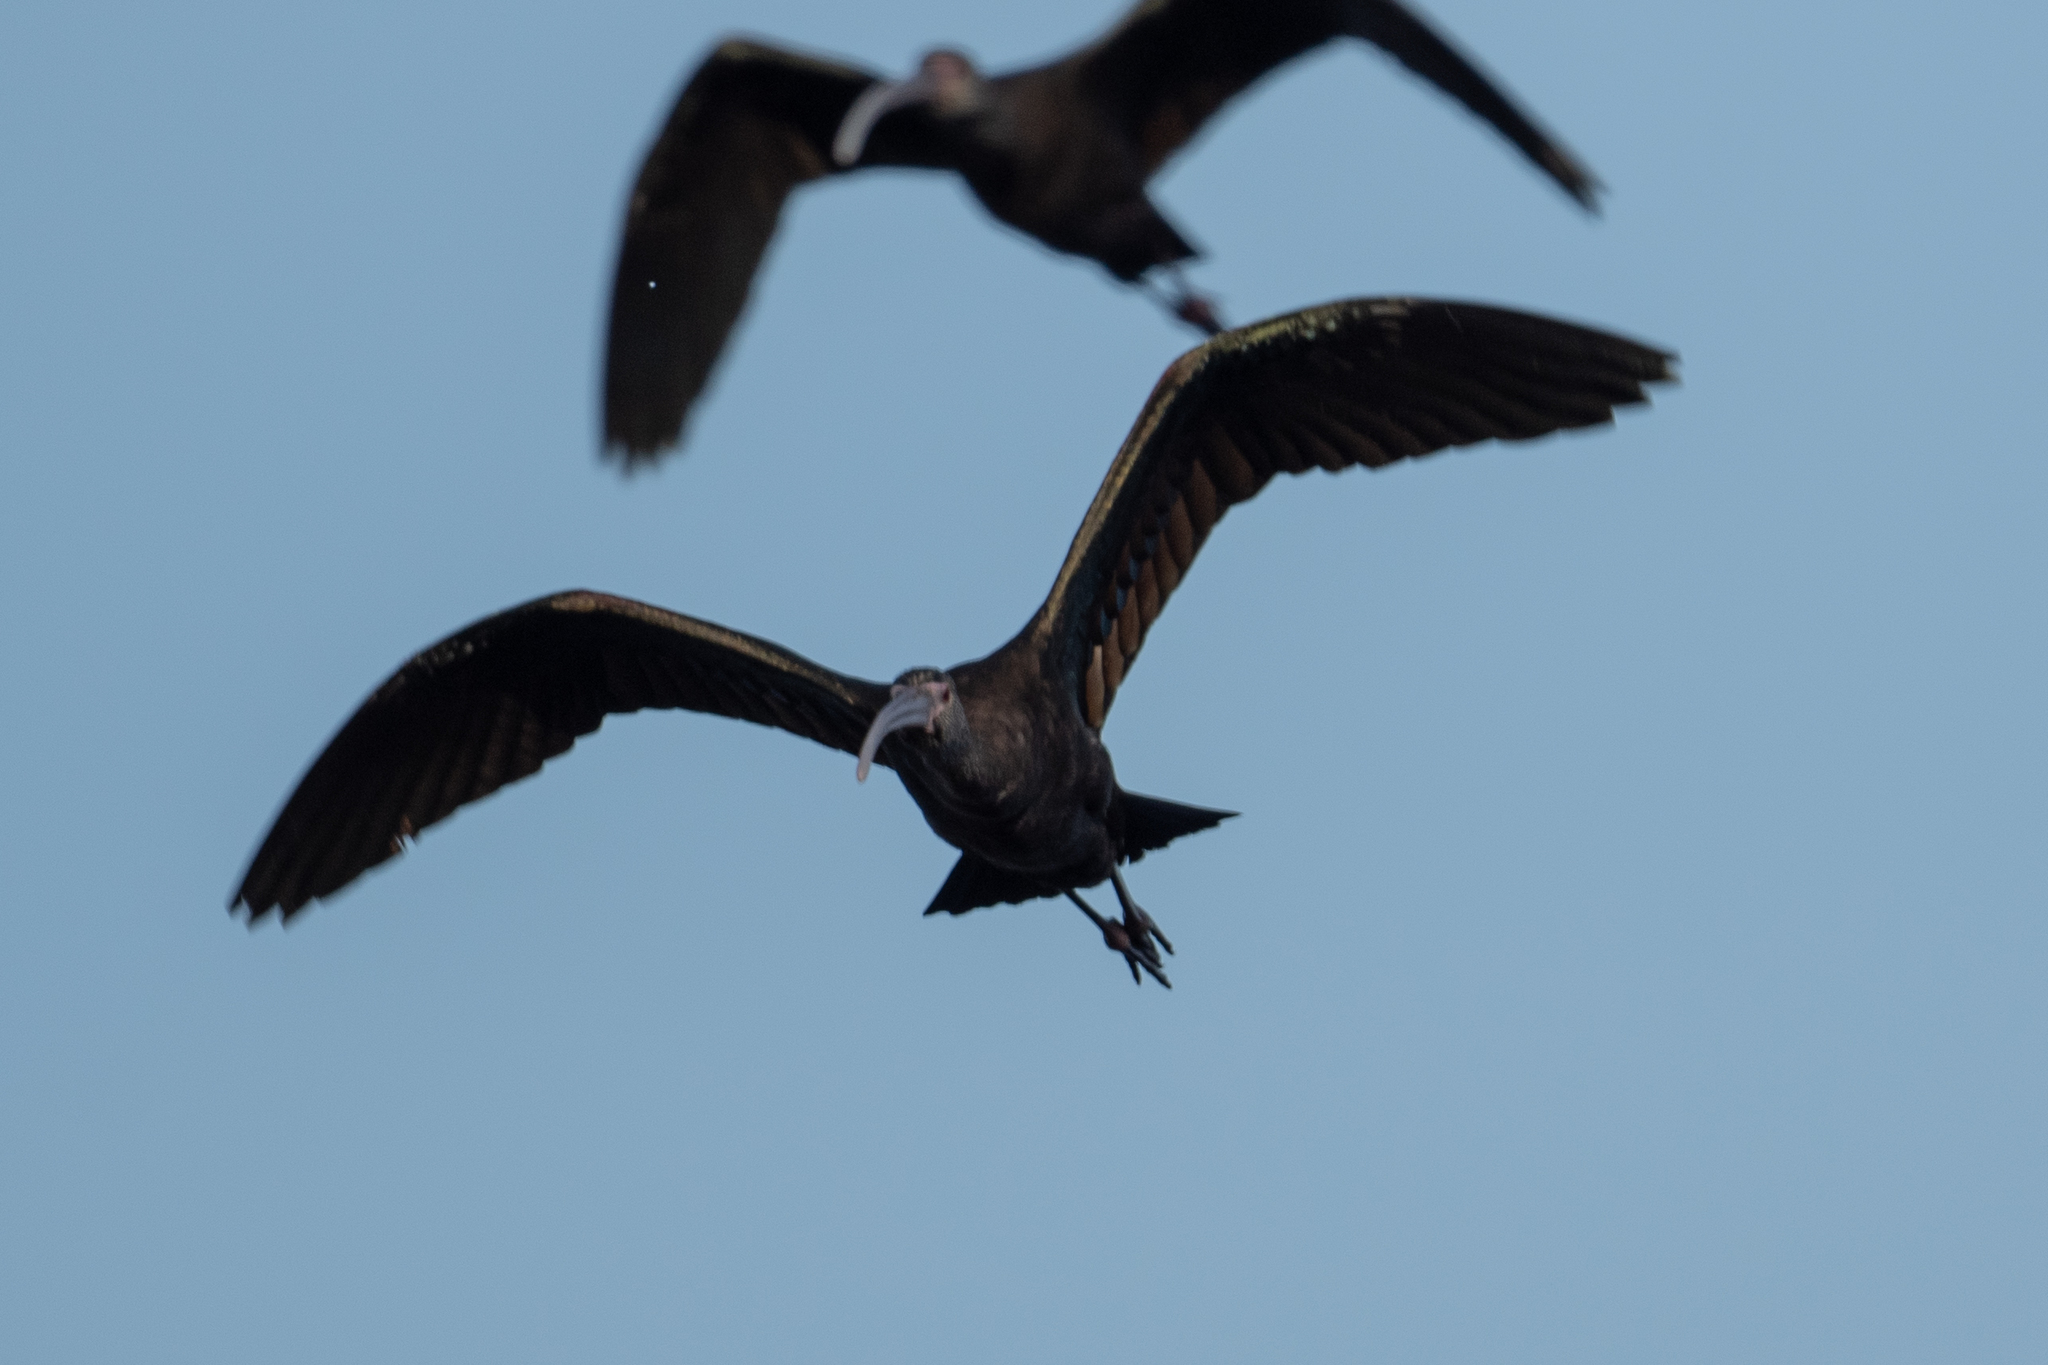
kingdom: Animalia
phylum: Chordata
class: Aves
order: Pelecaniformes
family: Threskiornithidae
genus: Plegadis
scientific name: Plegadis chihi
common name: White-faced ibis
